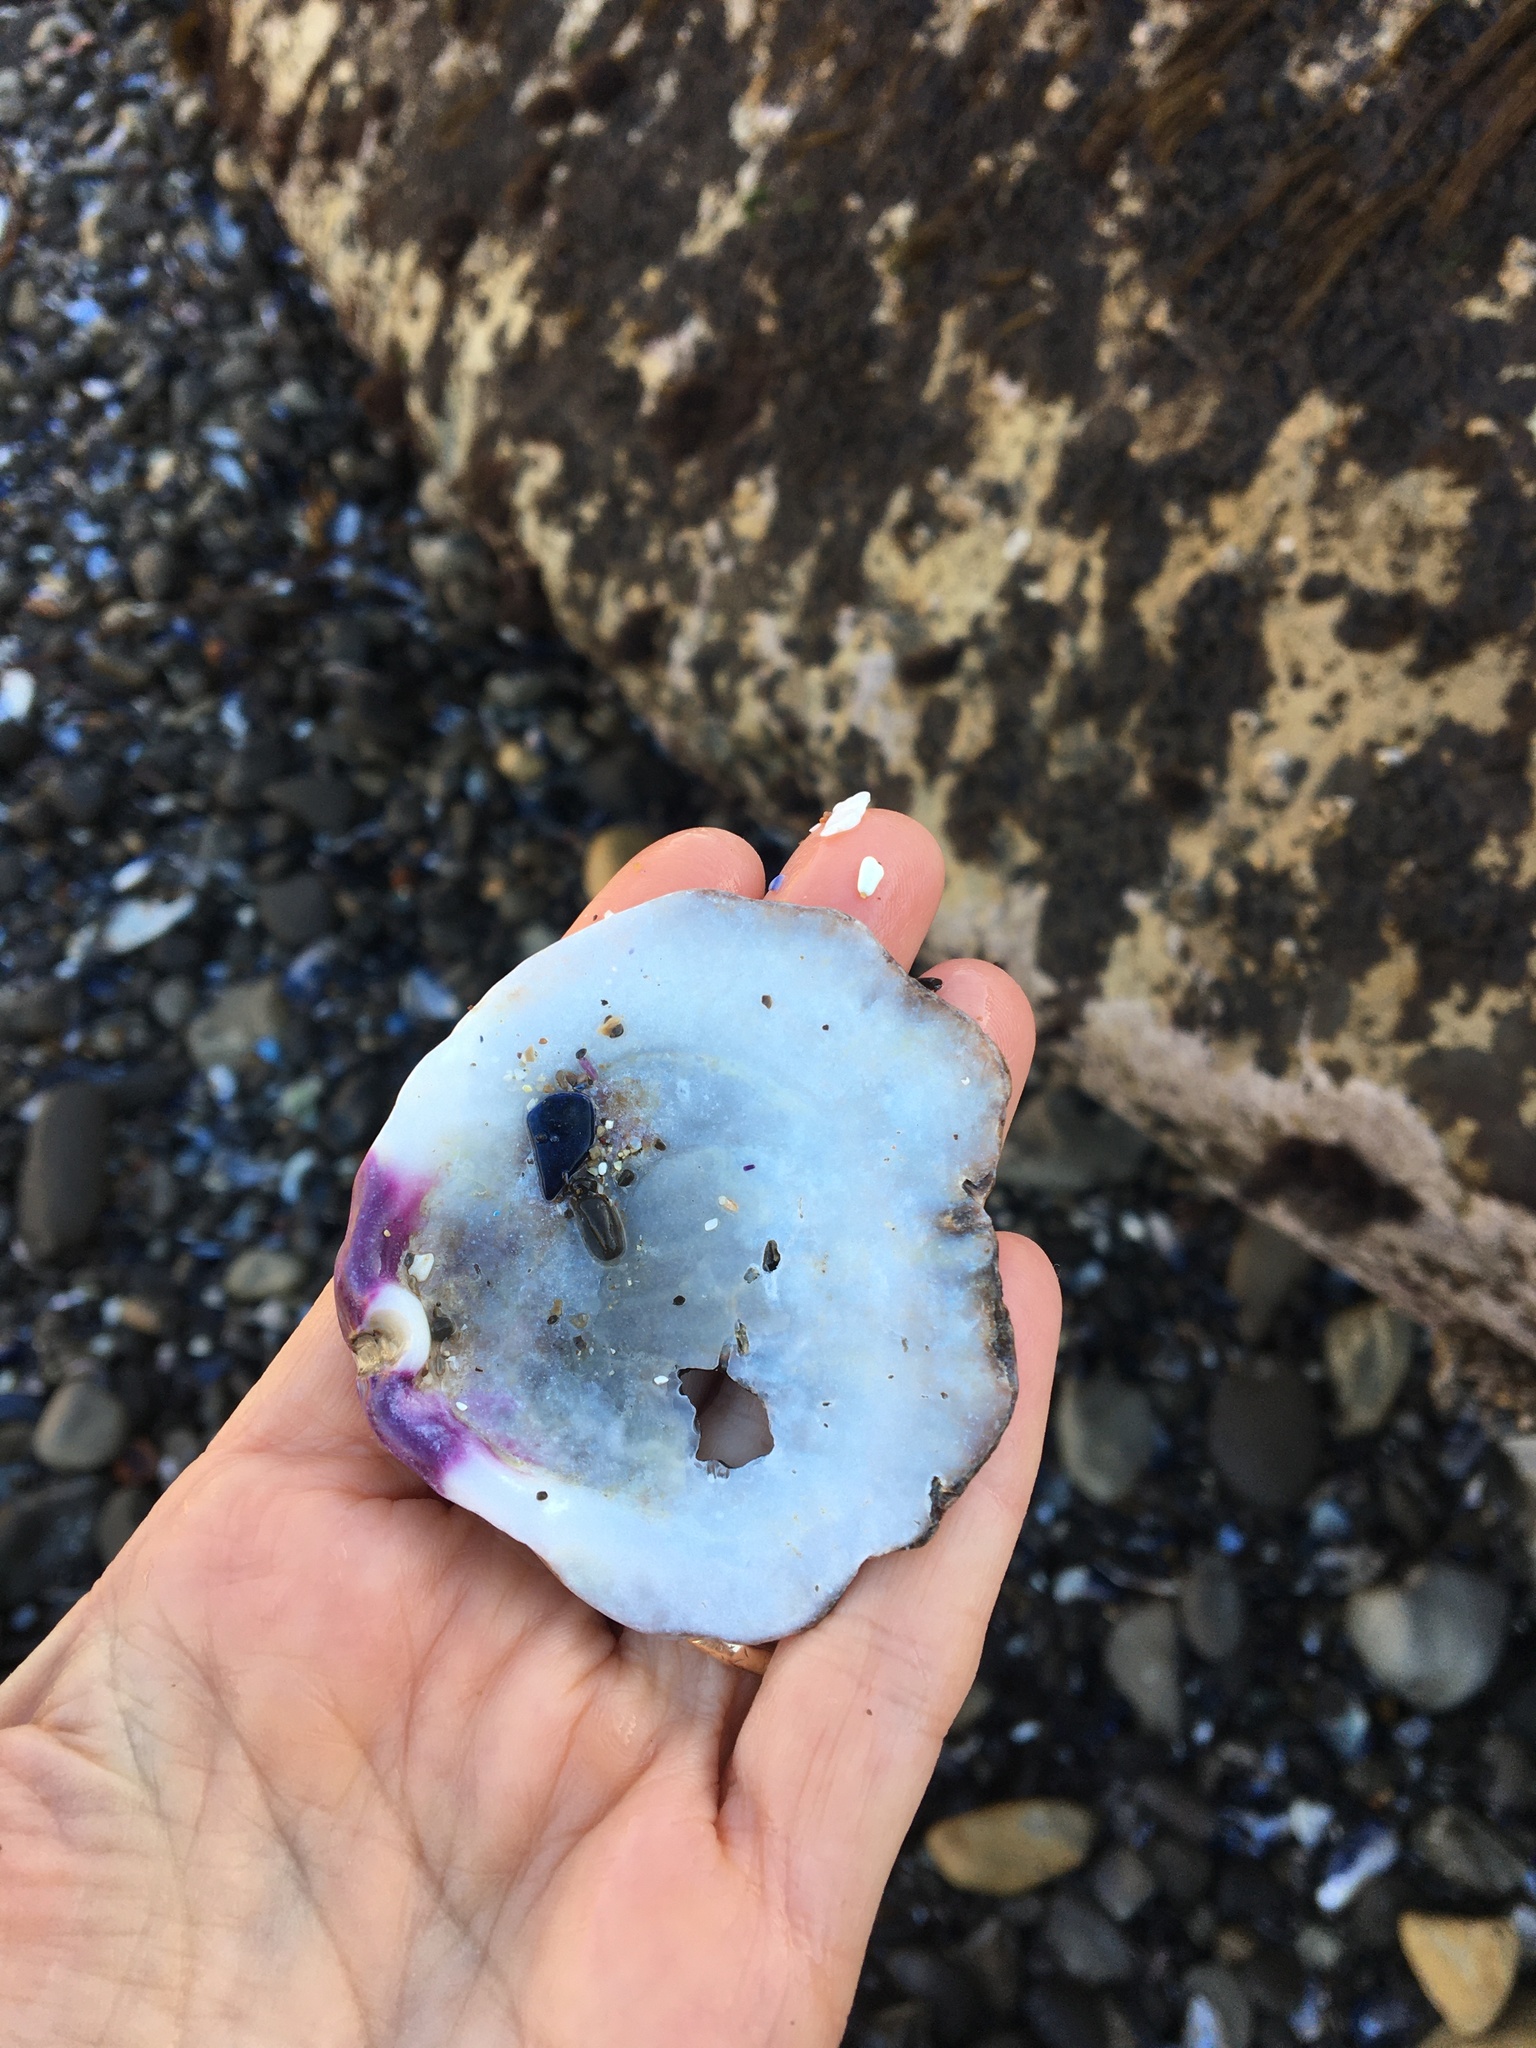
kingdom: Animalia
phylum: Mollusca
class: Bivalvia
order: Pectinida
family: Pectinidae
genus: Crassadoma
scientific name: Crassadoma gigantea
